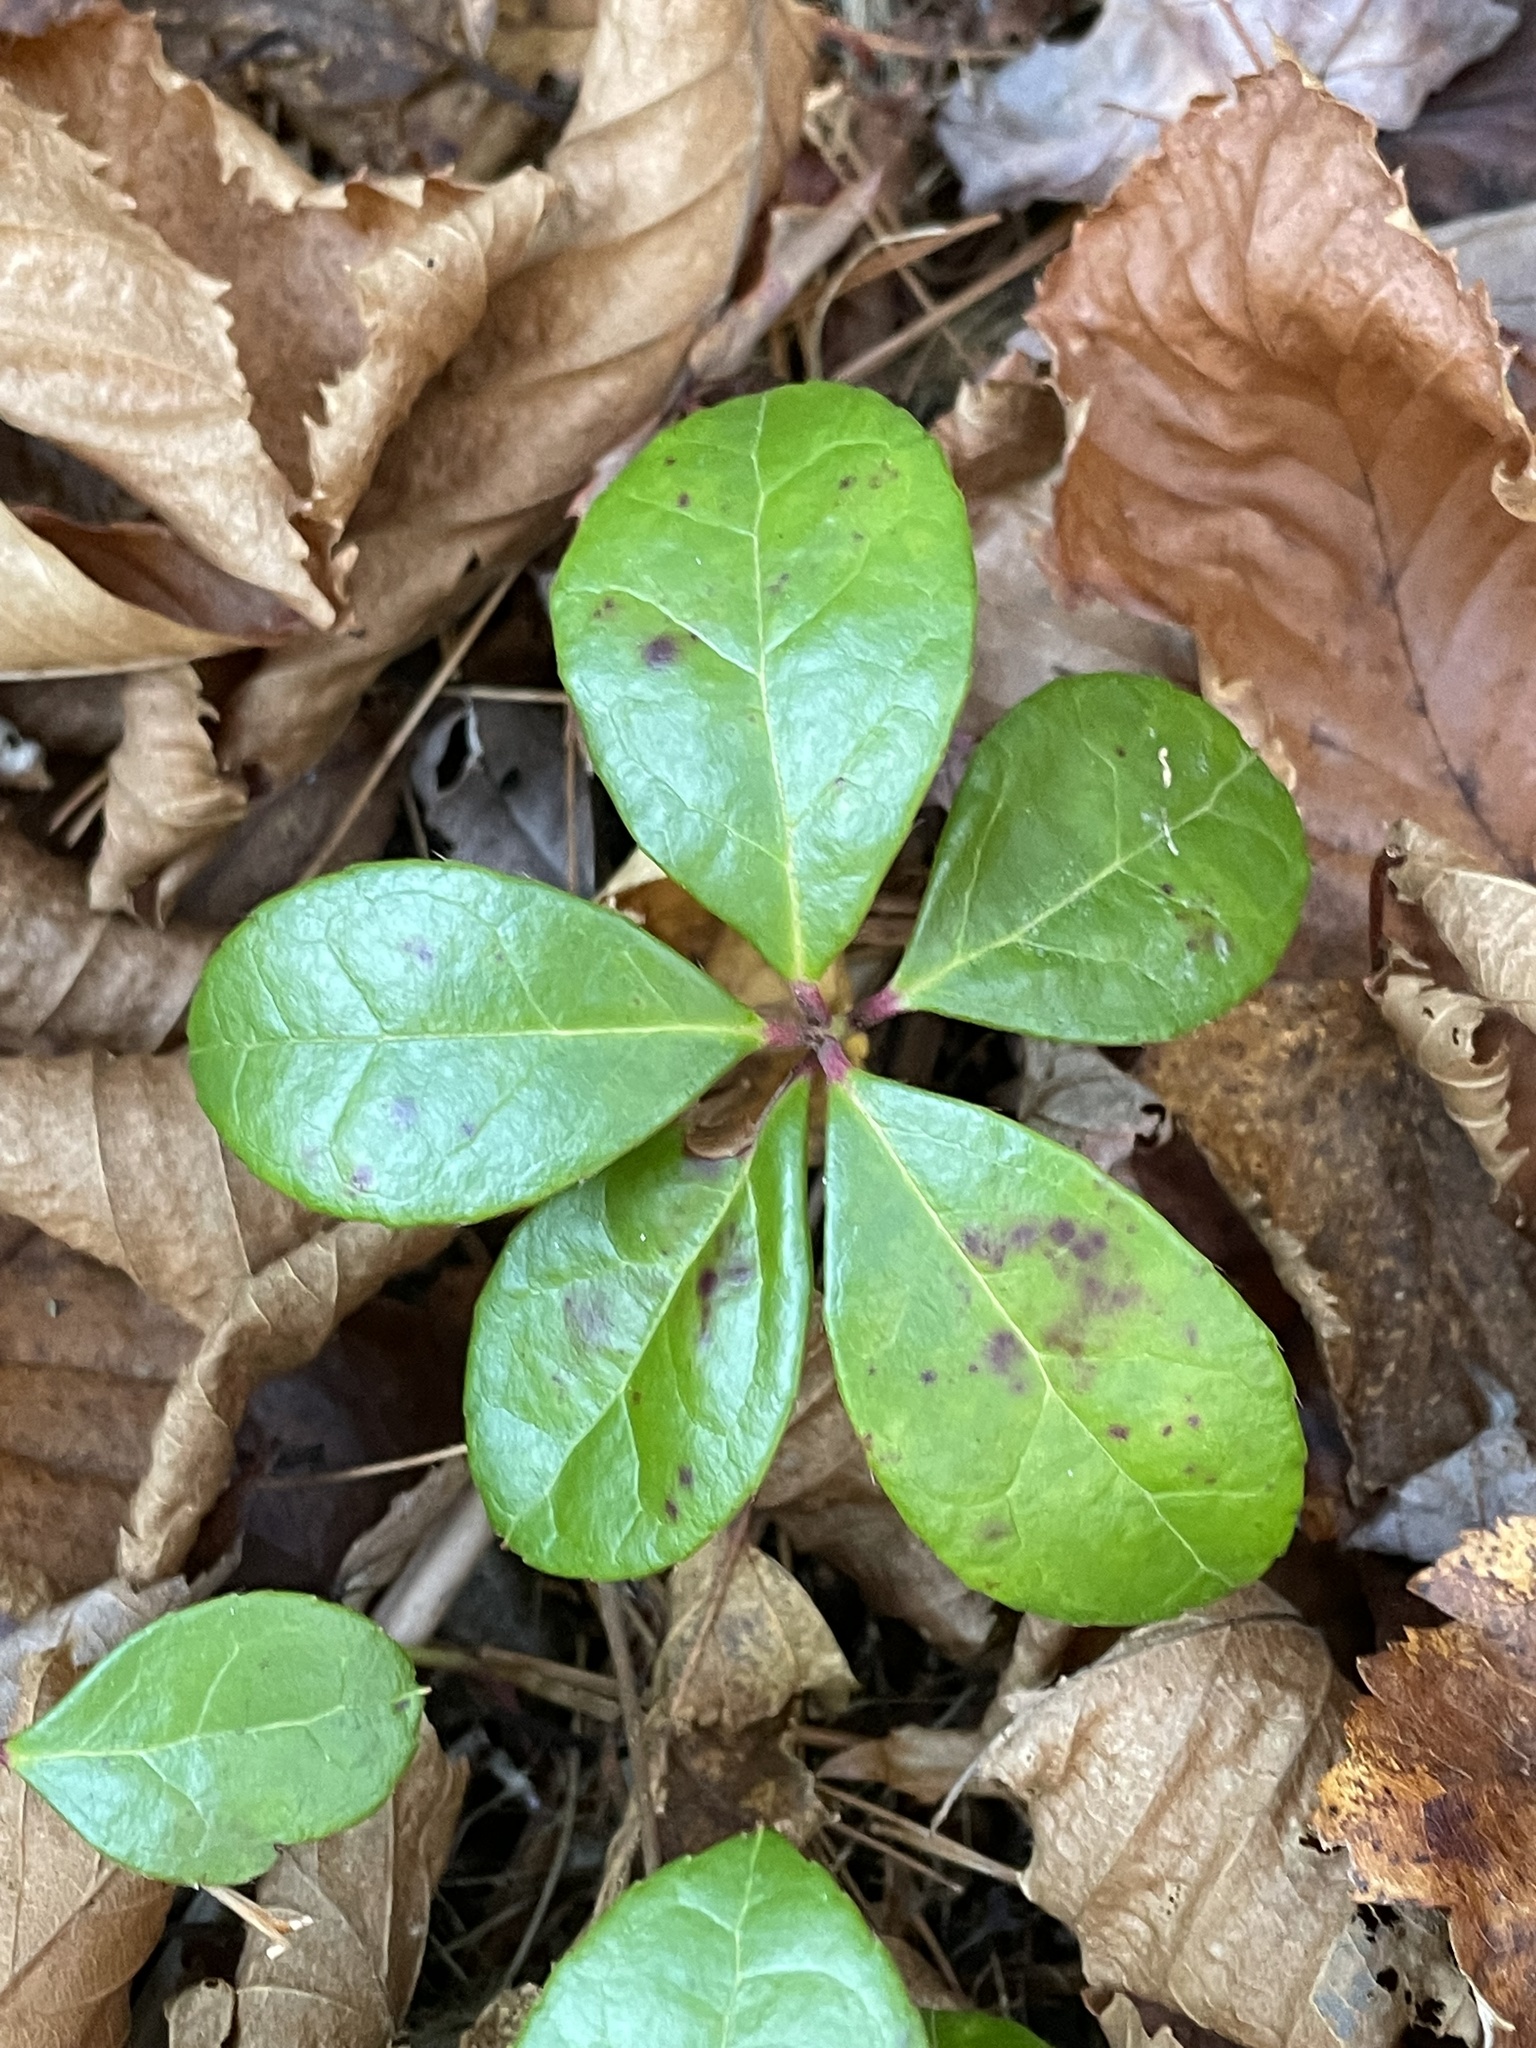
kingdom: Plantae
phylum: Tracheophyta
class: Magnoliopsida
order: Ericales
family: Ericaceae
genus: Gaultheria
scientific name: Gaultheria procumbens
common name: Checkerberry
